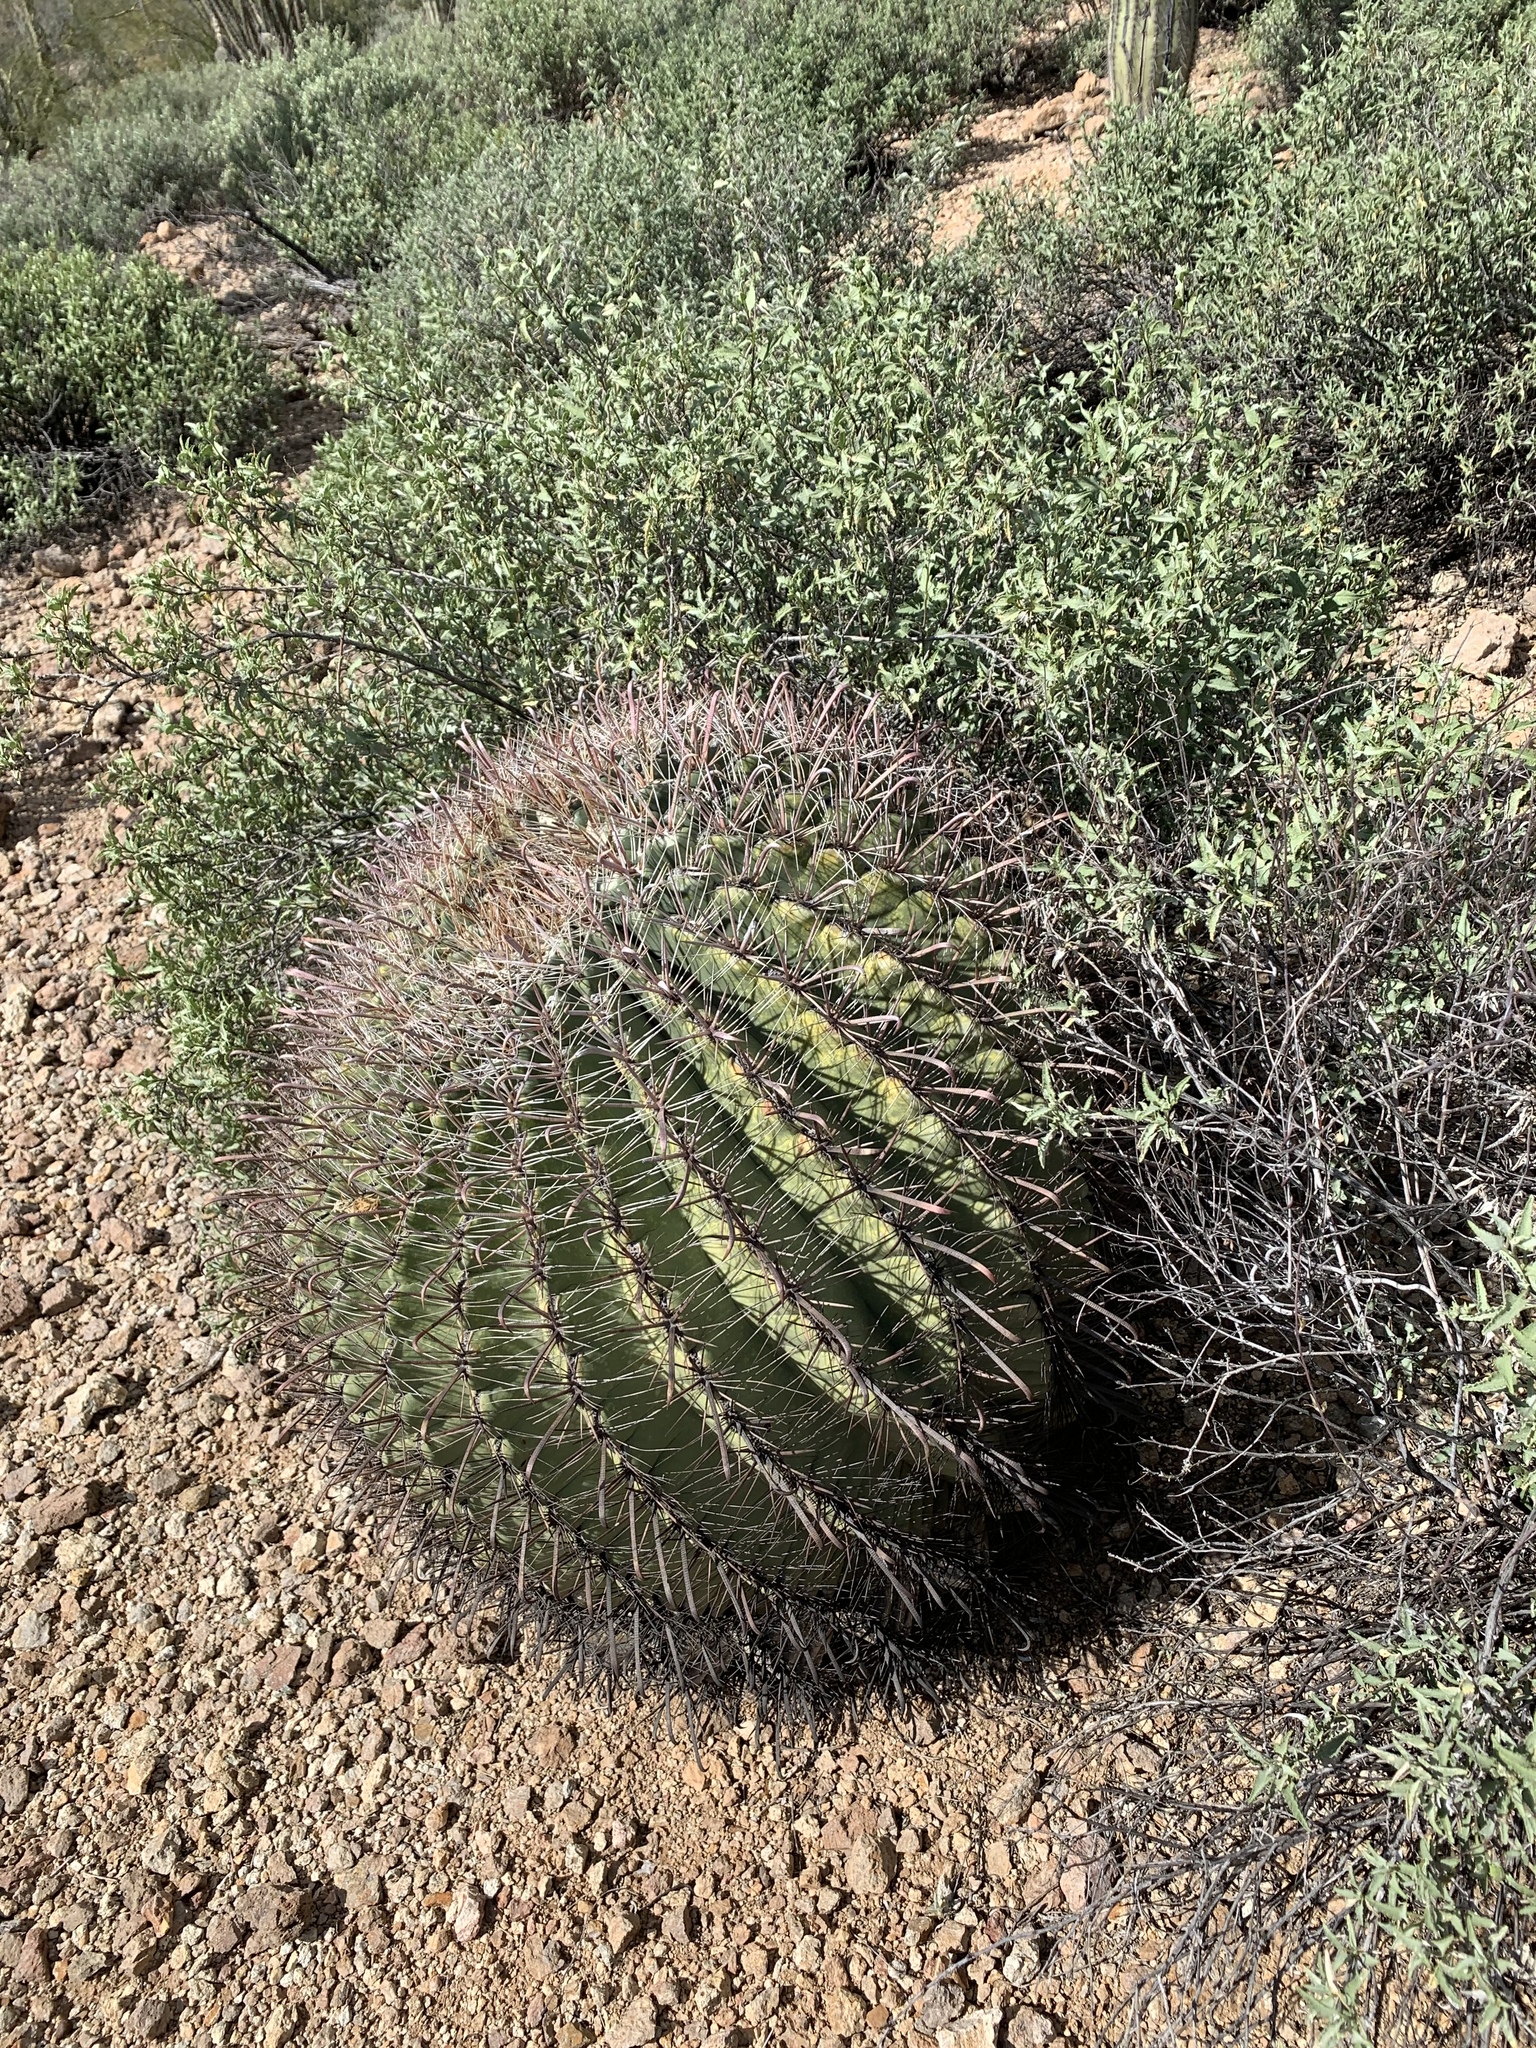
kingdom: Plantae
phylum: Tracheophyta
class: Magnoliopsida
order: Caryophyllales
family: Cactaceae
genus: Ferocactus
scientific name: Ferocactus wislizeni
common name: Candy barrel cactus
